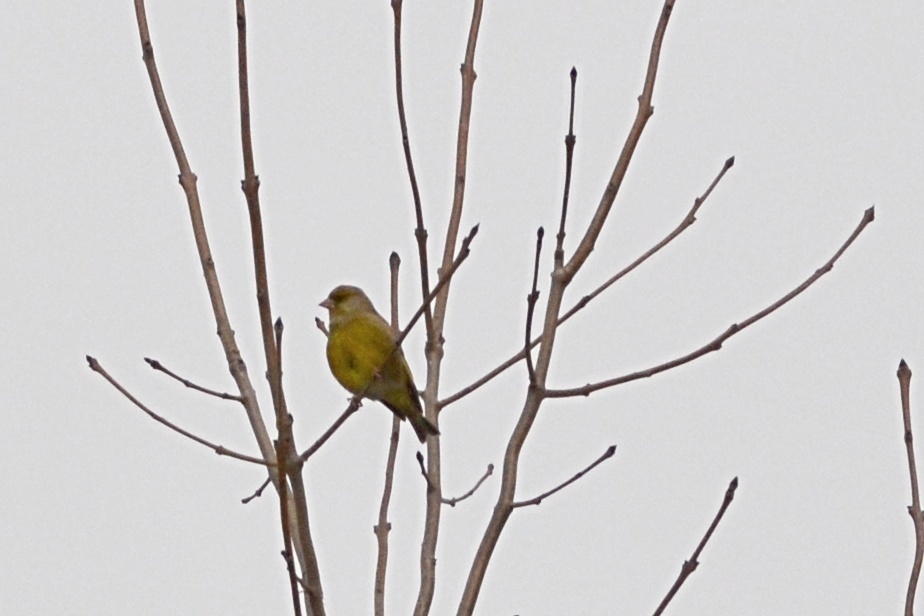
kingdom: Plantae
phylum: Tracheophyta
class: Liliopsida
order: Poales
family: Poaceae
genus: Chloris
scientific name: Chloris chloris
